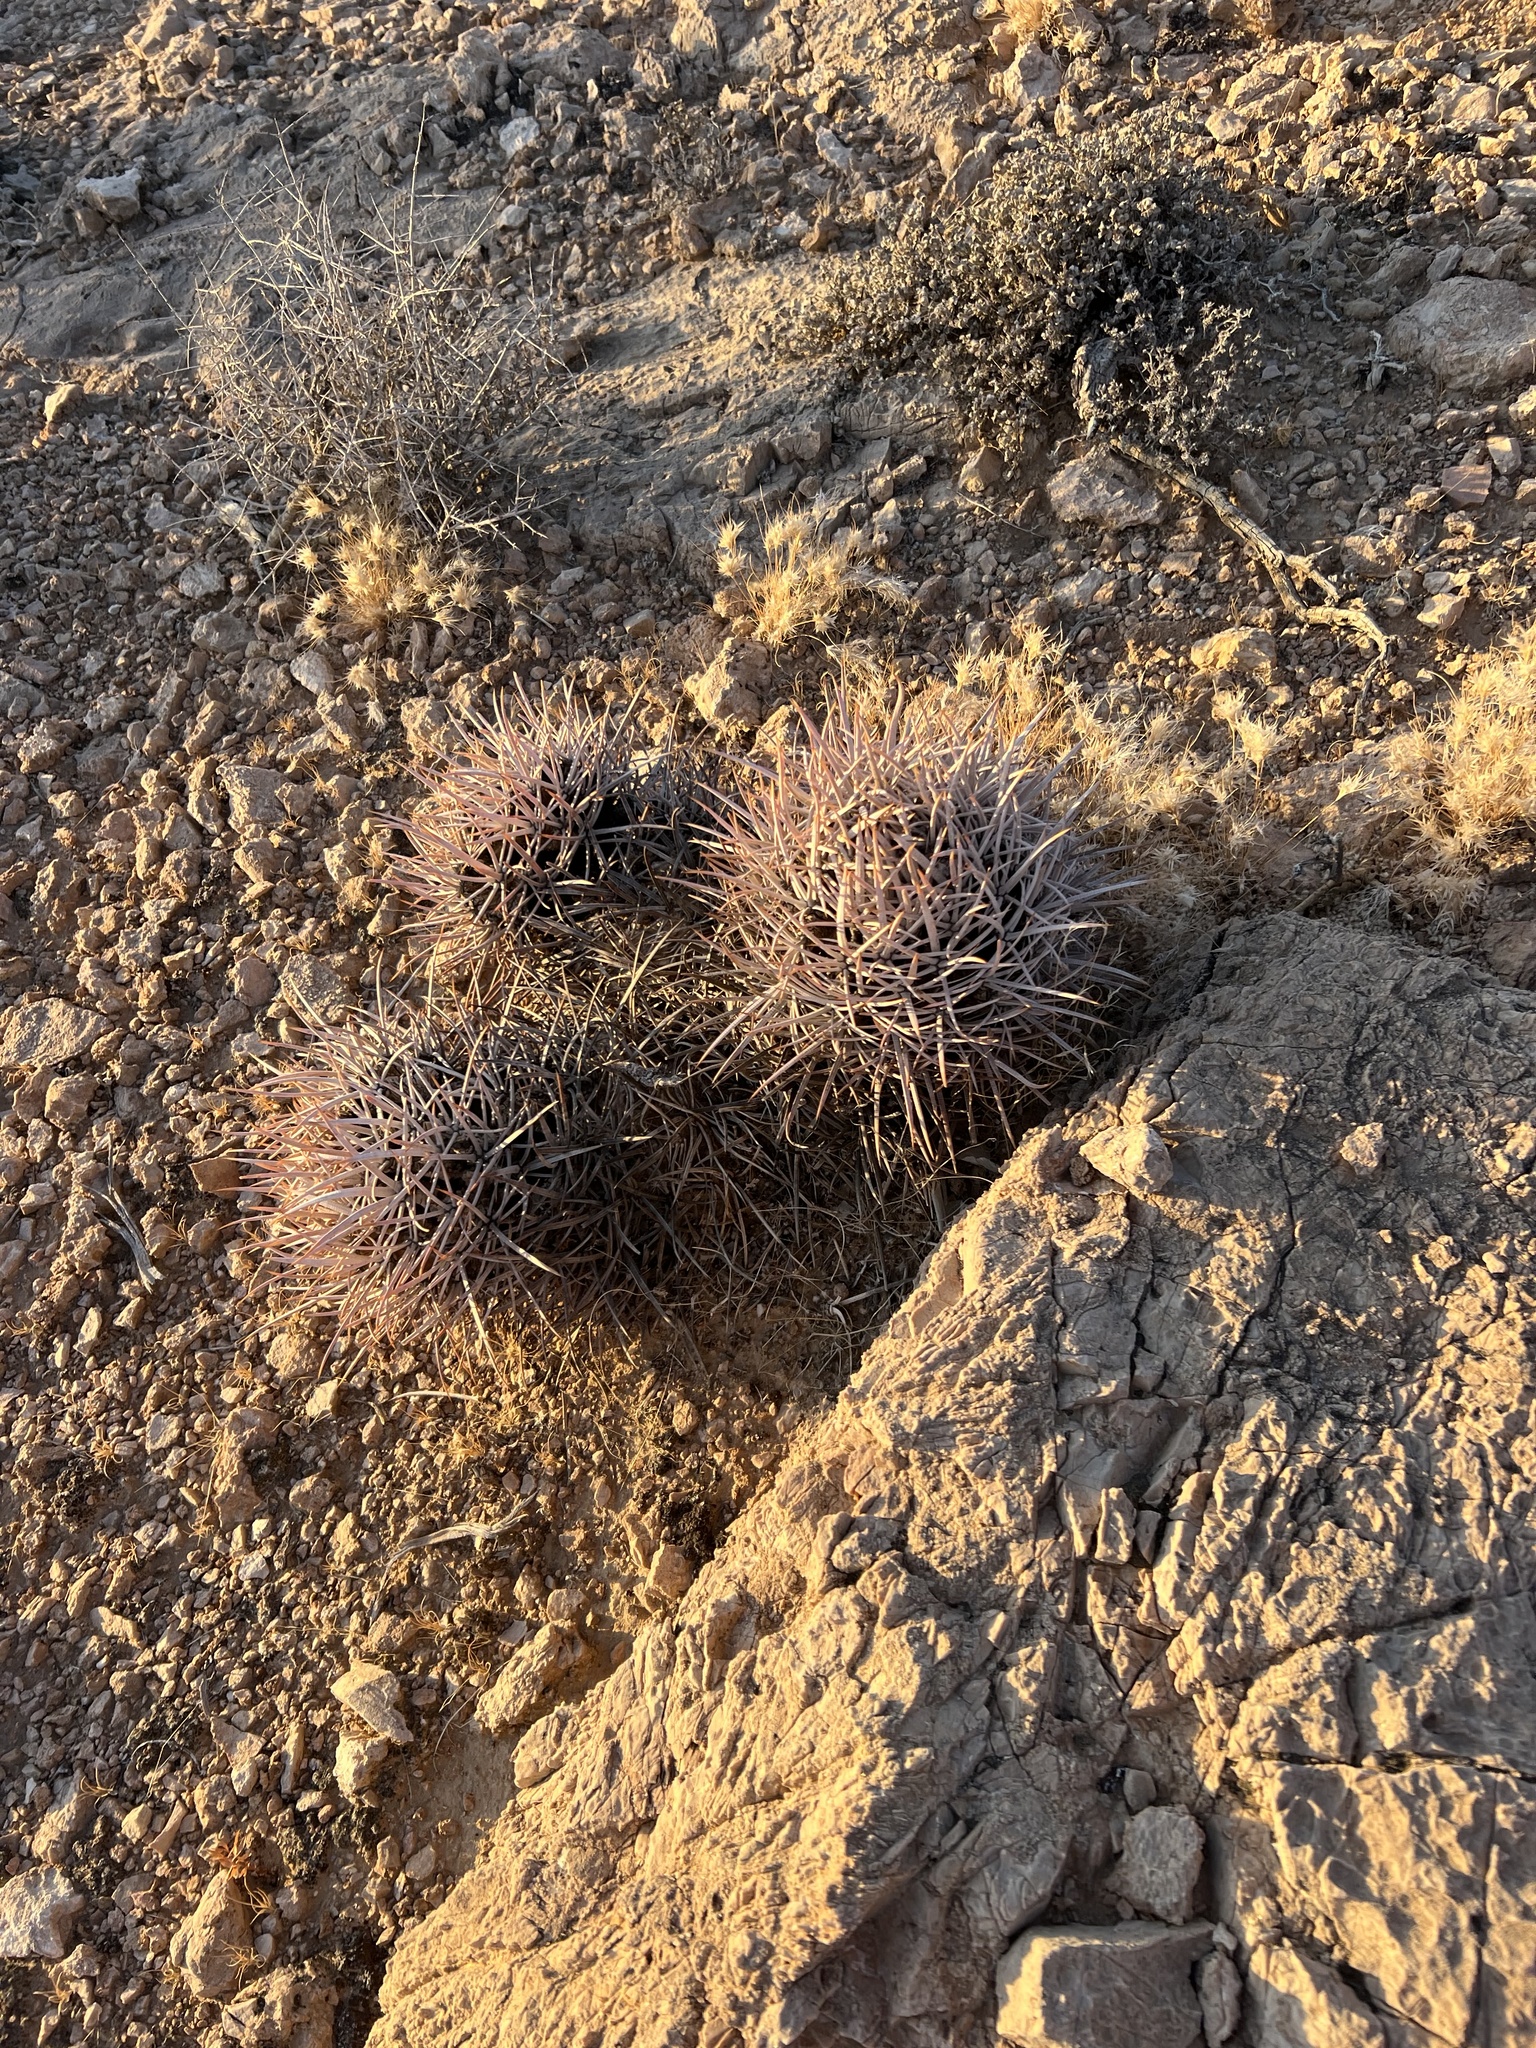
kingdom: Plantae
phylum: Tracheophyta
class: Magnoliopsida
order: Caryophyllales
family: Cactaceae
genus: Echinocactus
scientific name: Echinocactus polycephalus
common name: Cottontop cactus
